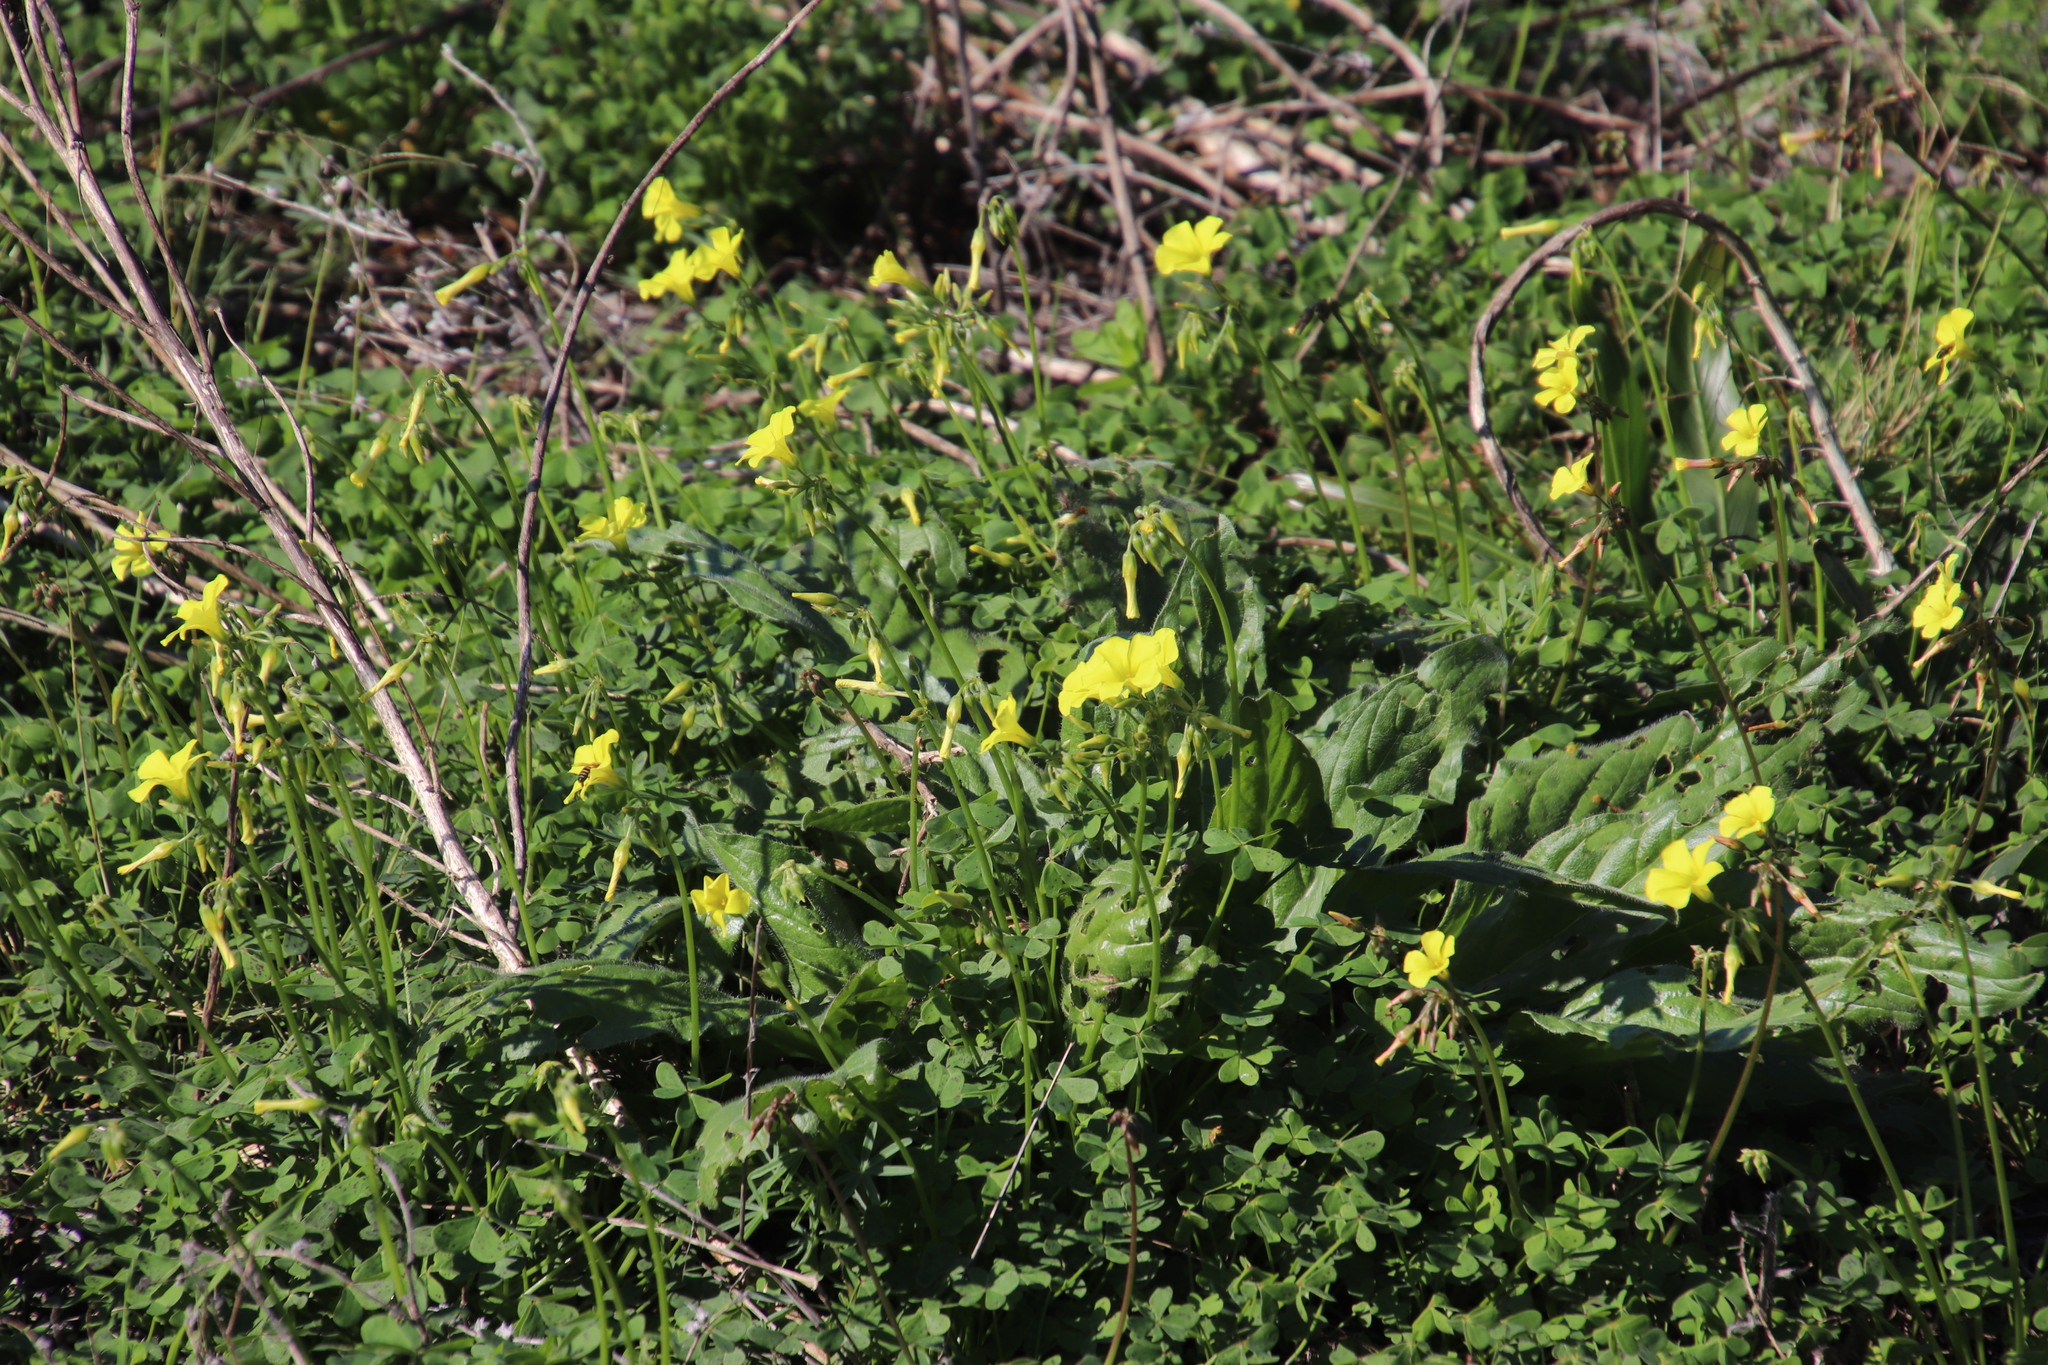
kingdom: Plantae
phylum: Tracheophyta
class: Magnoliopsida
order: Oxalidales
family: Oxalidaceae
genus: Oxalis
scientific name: Oxalis pes-caprae
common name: Bermuda-buttercup
